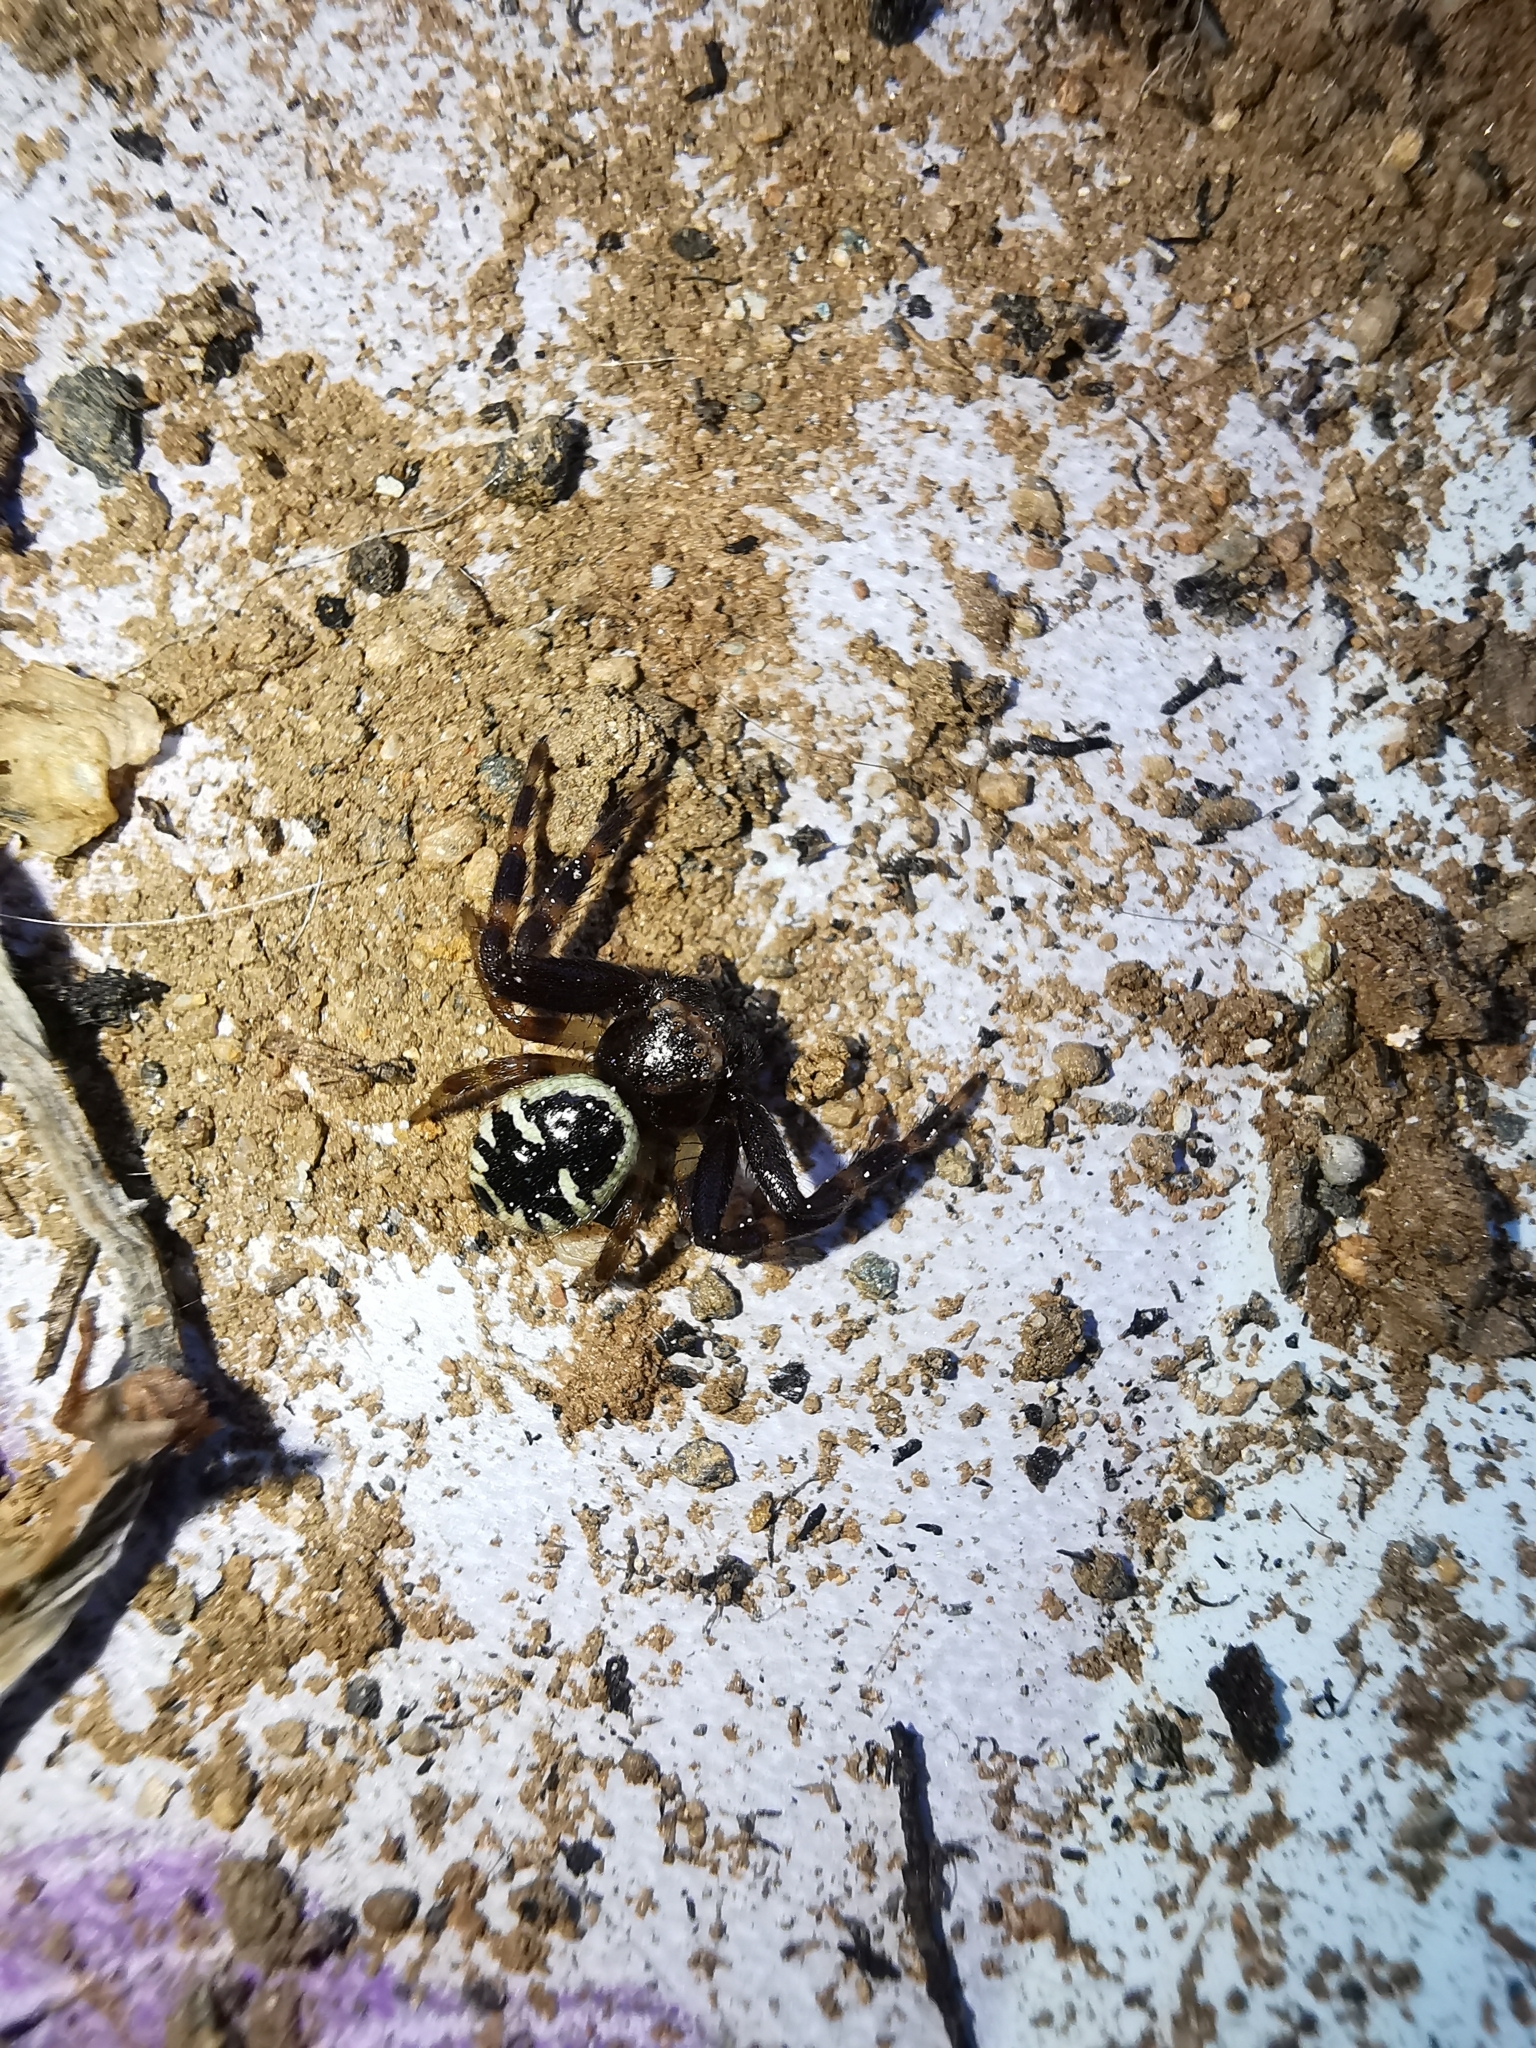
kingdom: Animalia
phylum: Arthropoda
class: Arachnida
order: Araneae
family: Thomisidae
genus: Synema
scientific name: Synema globosum
